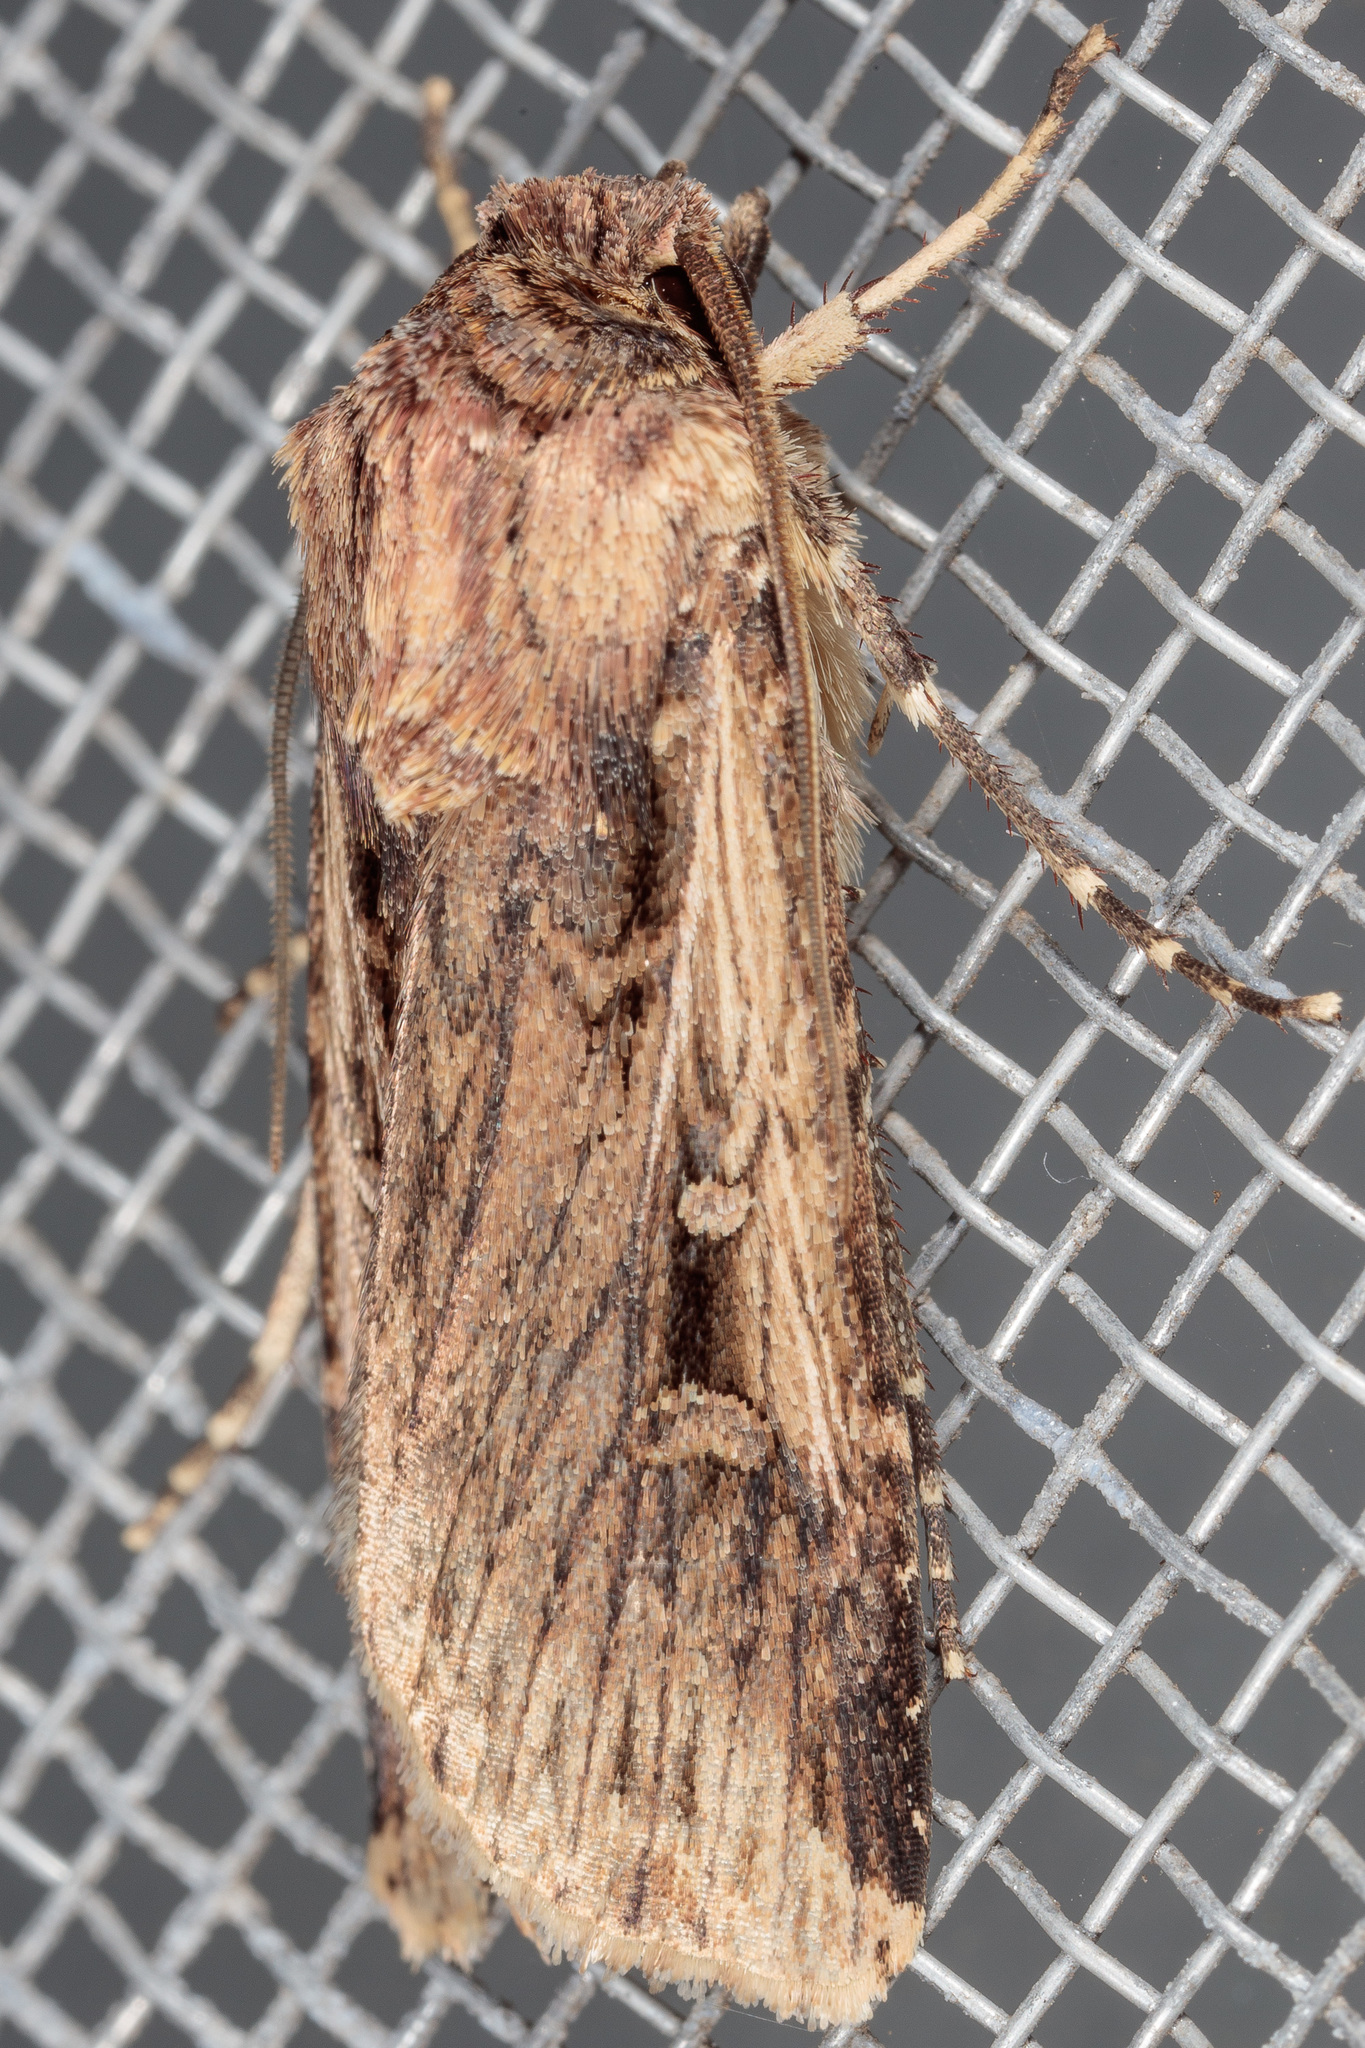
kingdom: Animalia
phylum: Arthropoda
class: Insecta
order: Lepidoptera
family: Noctuidae
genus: Feltia
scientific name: Feltia subterranea
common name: Granulate cutworm
